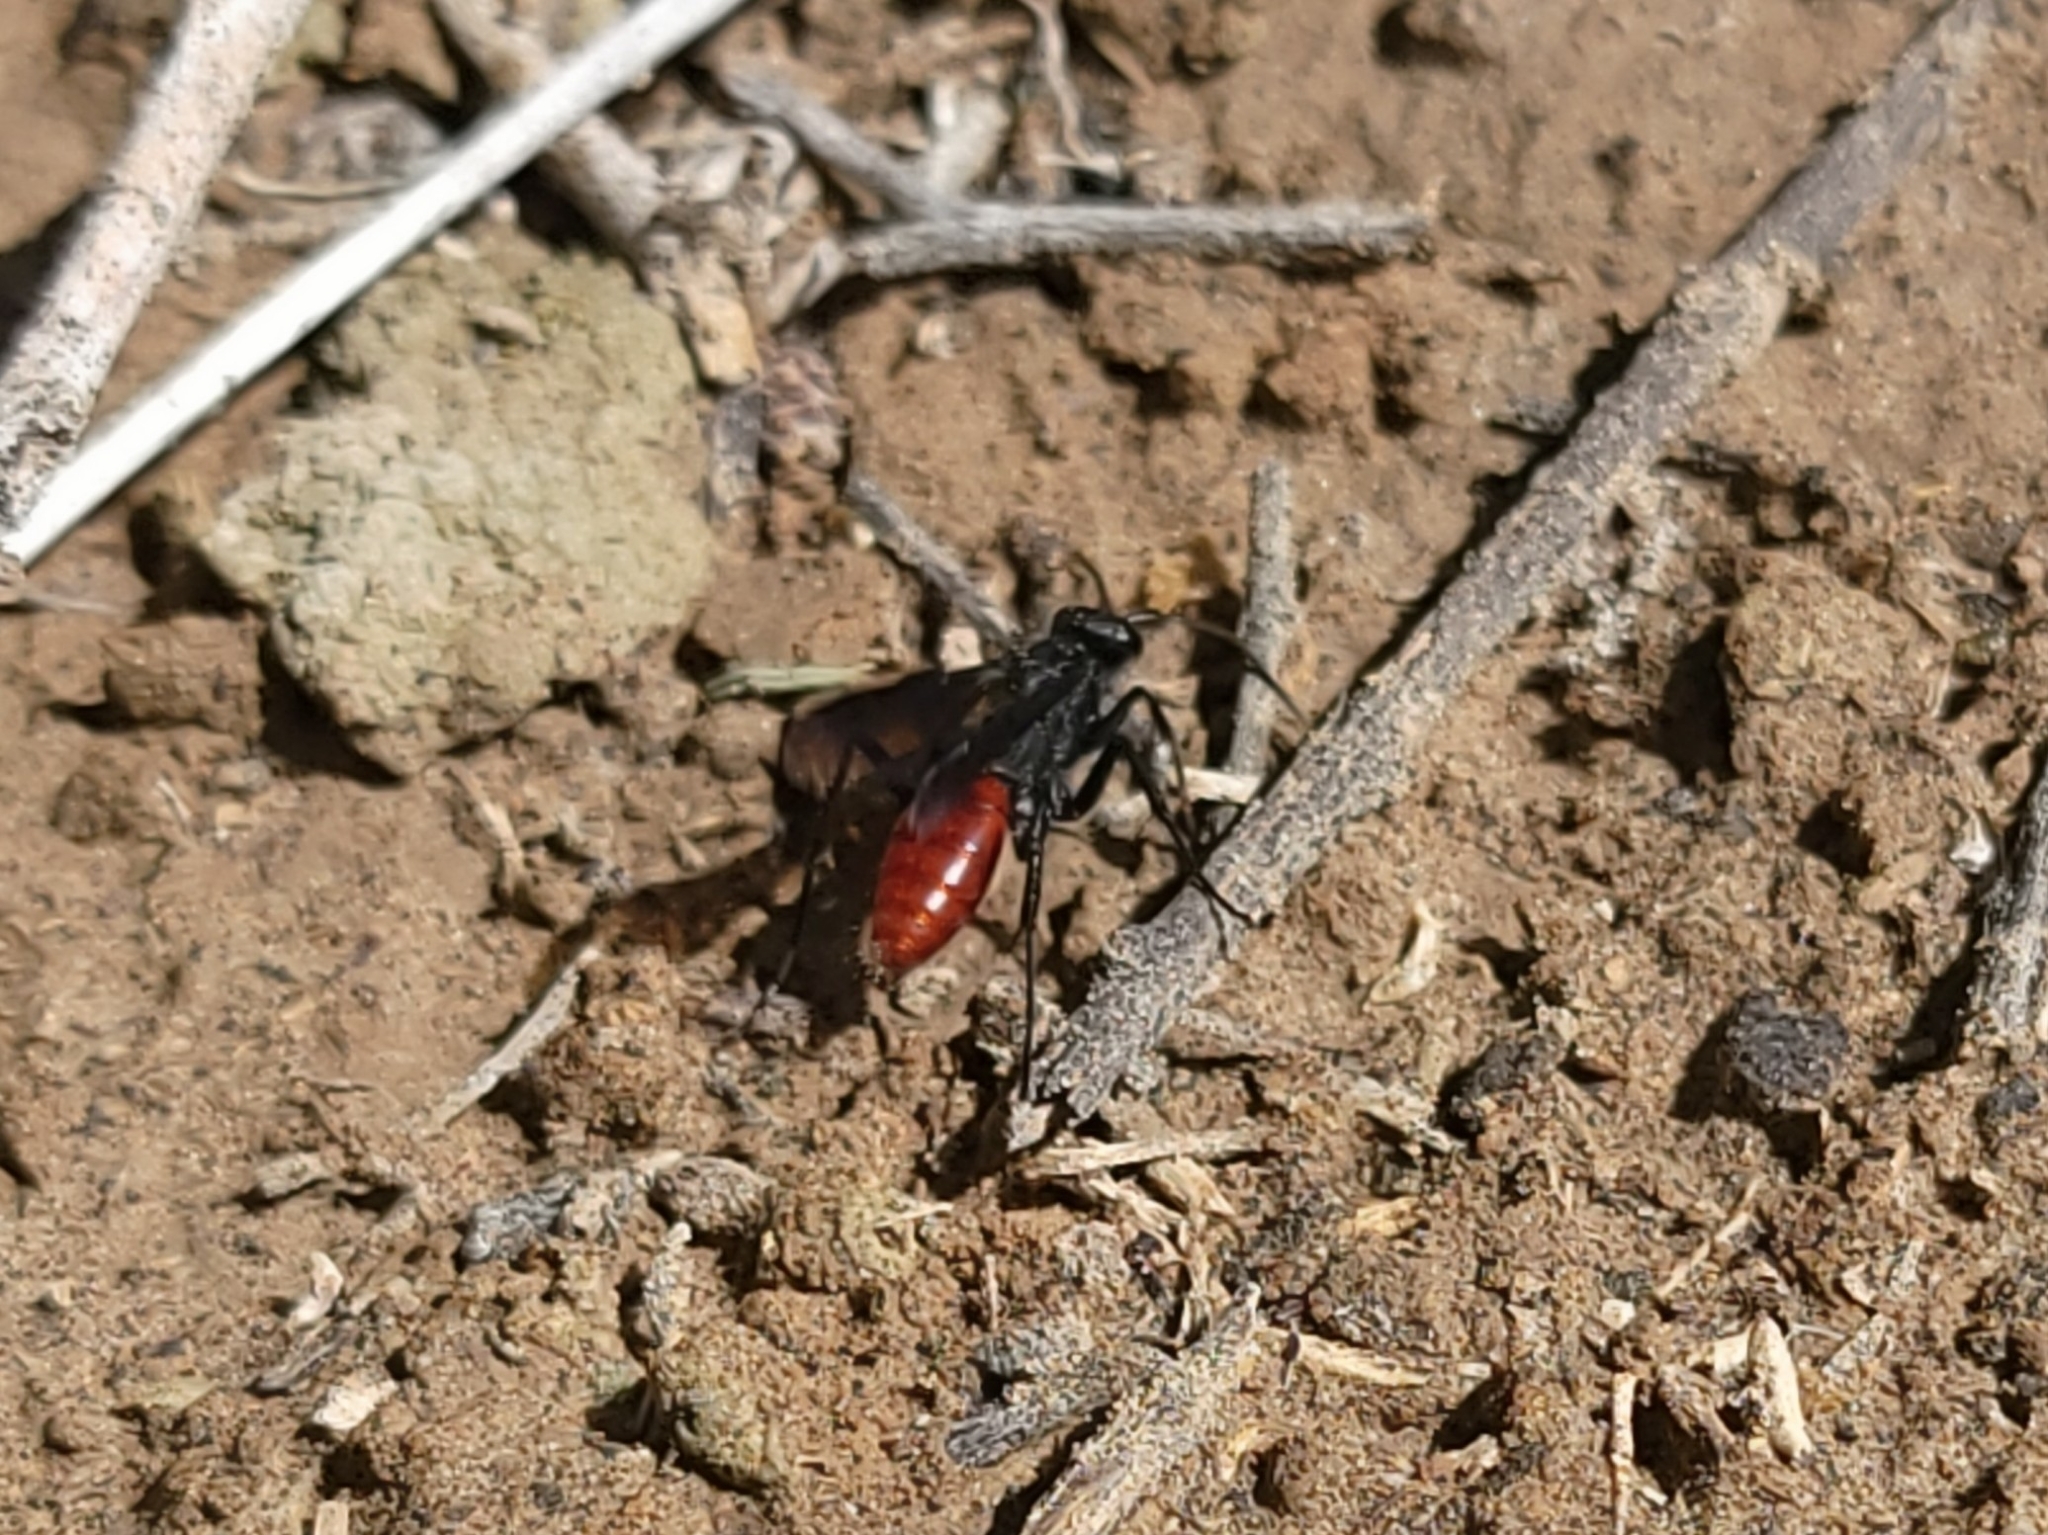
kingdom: Animalia
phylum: Arthropoda
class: Insecta
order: Hymenoptera
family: Pompilidae
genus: Priocnemis
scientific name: Priocnemis oregona
